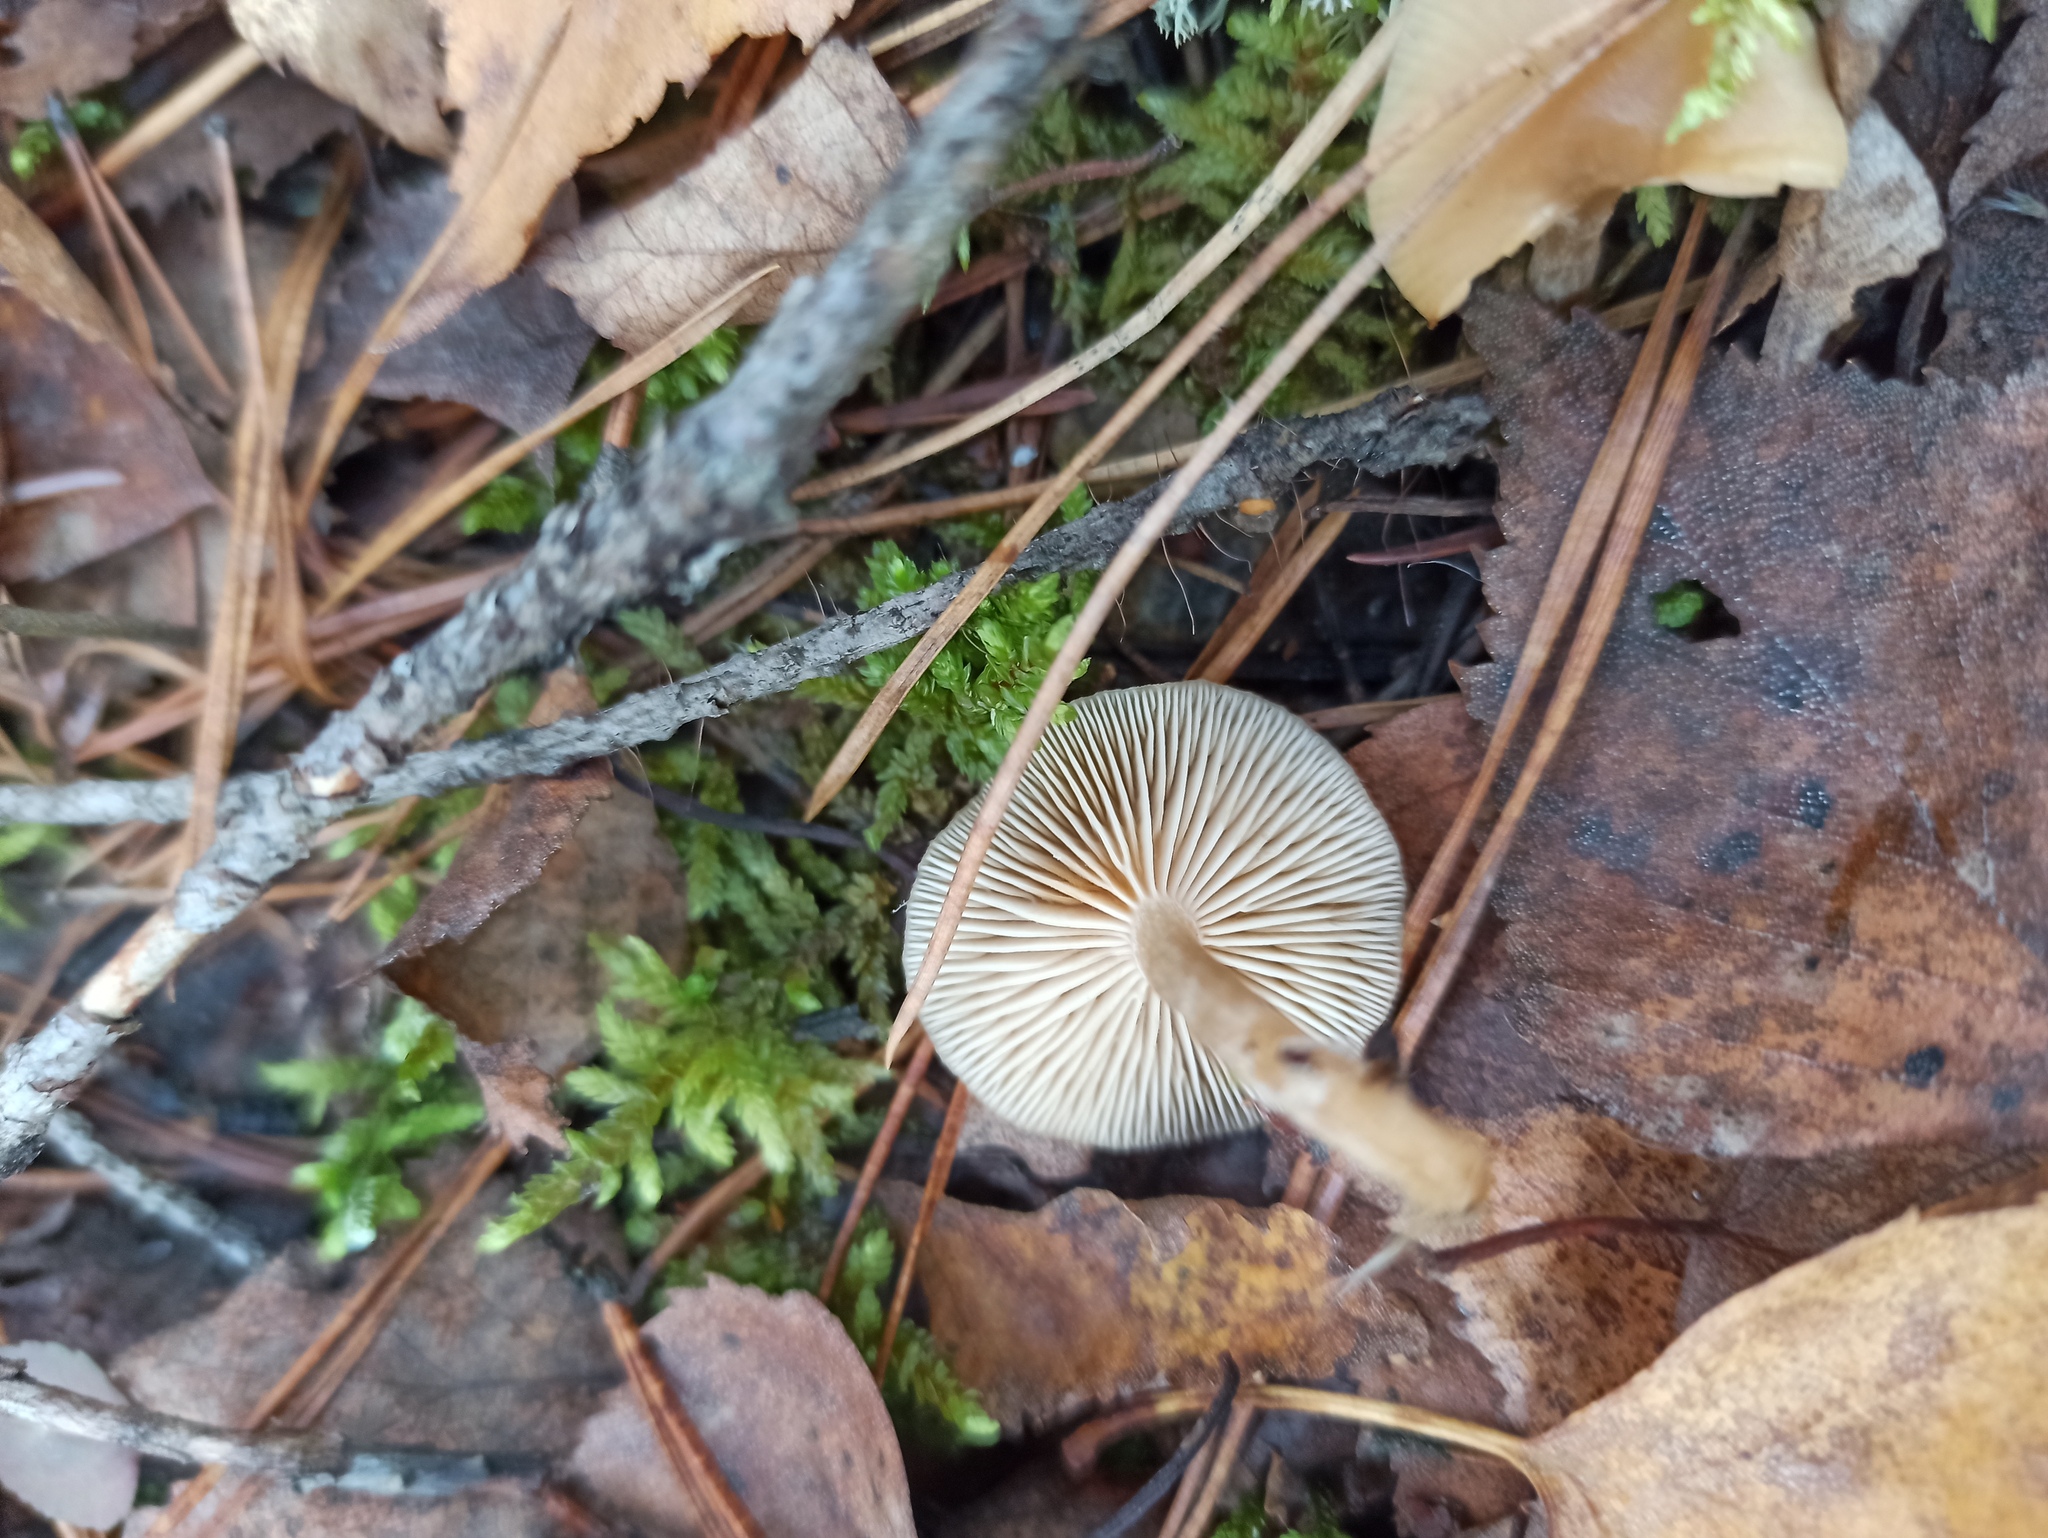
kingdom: Fungi
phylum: Basidiomycota
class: Agaricomycetes
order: Agaricales
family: Tricholomataceae
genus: Clitocybe
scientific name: Clitocybe fragrans
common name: Fragrant funnel
